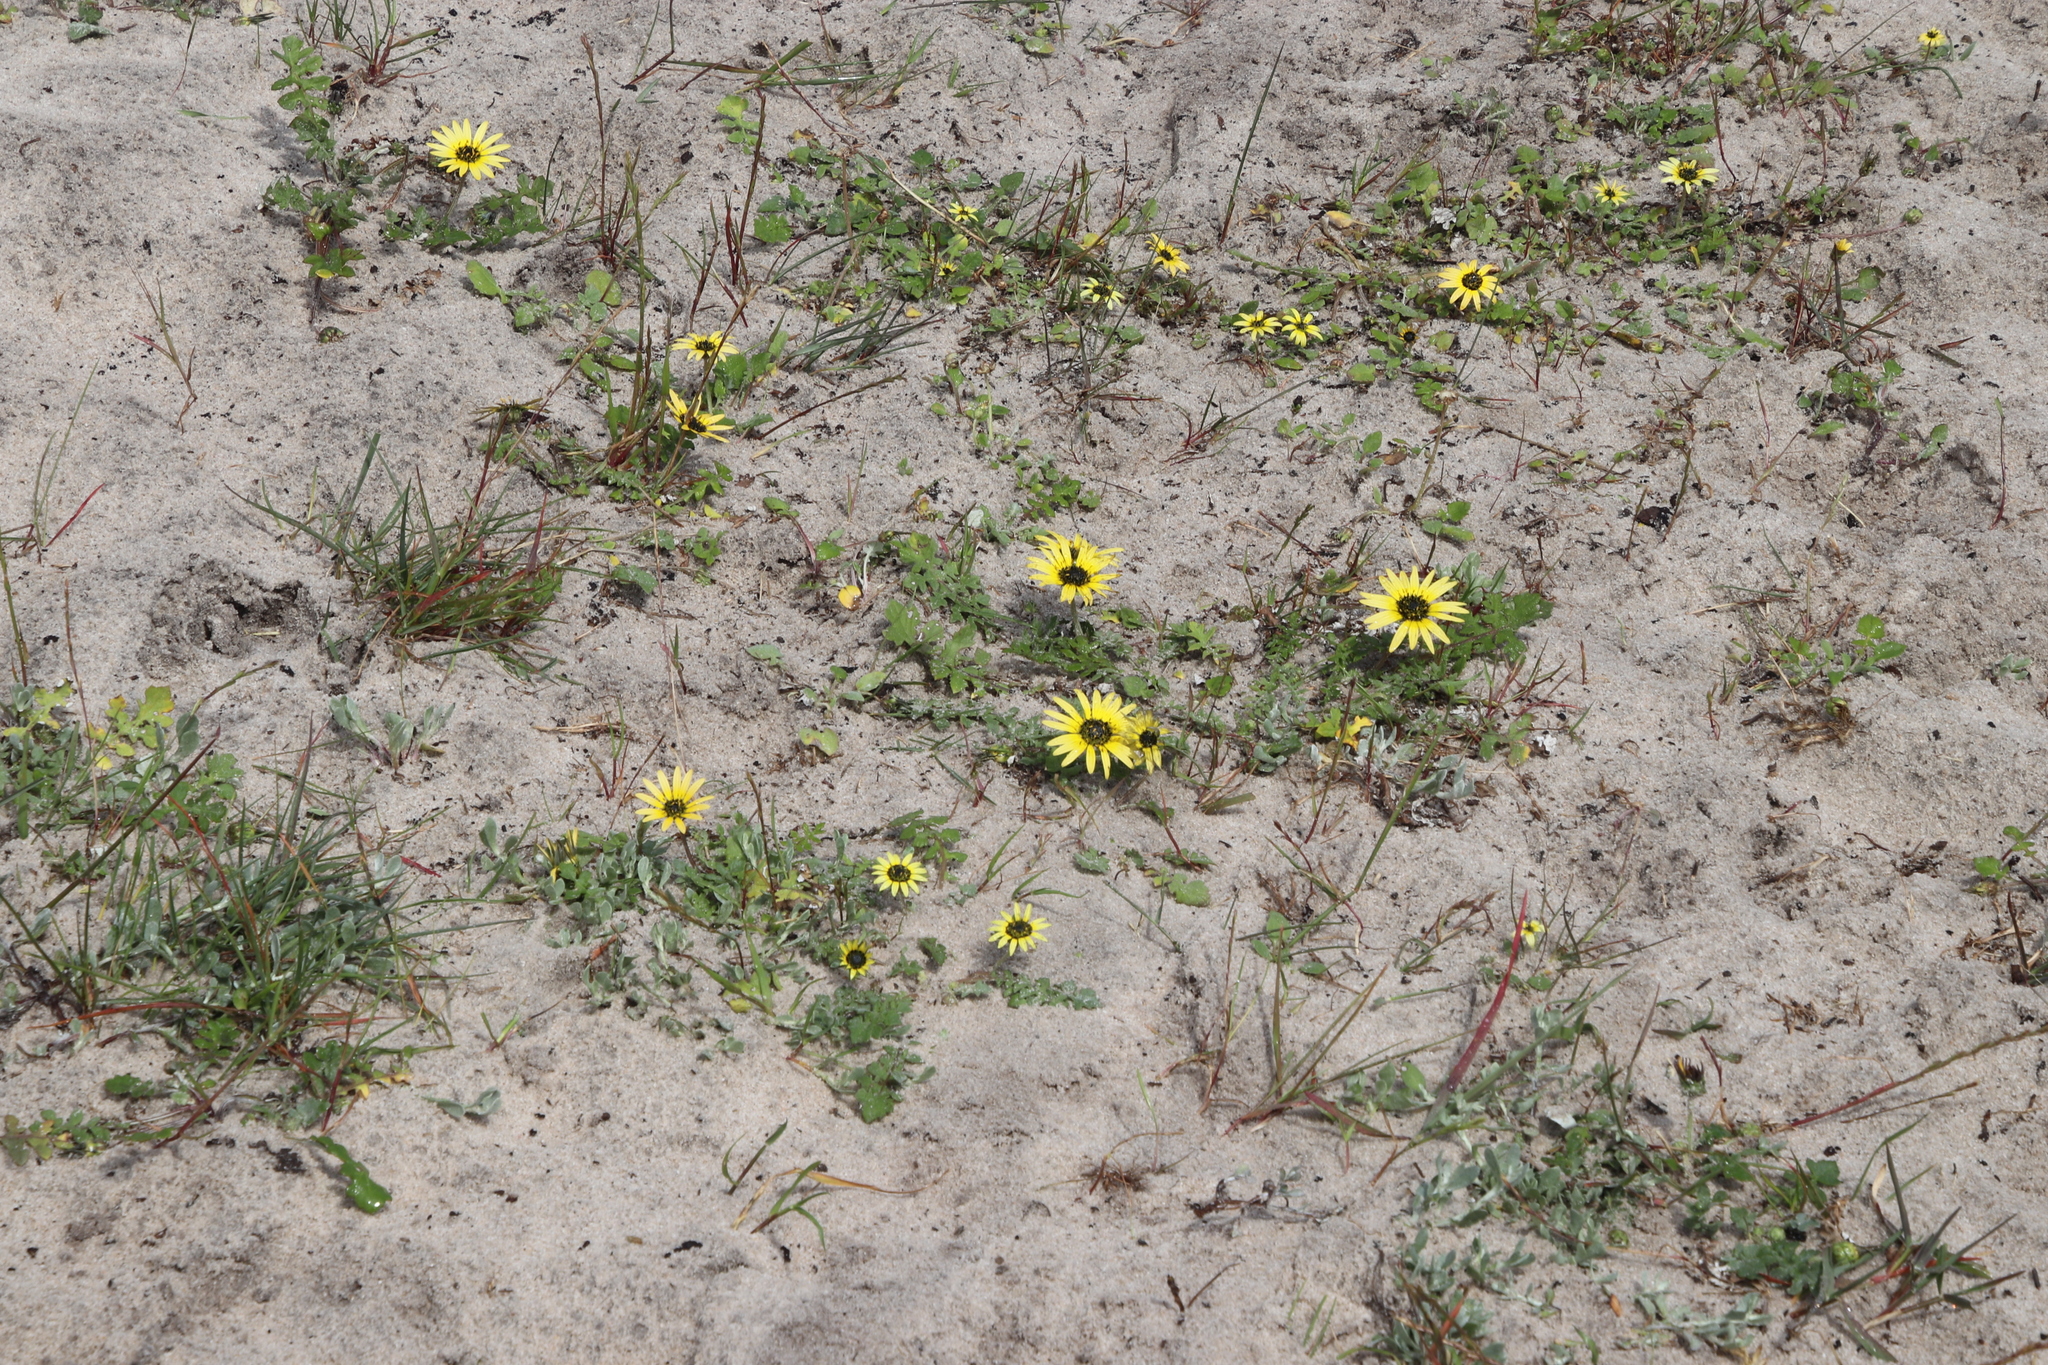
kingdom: Plantae
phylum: Tracheophyta
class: Magnoliopsida
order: Asterales
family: Asteraceae
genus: Arctotheca
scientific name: Arctotheca calendula
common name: Capeweed
